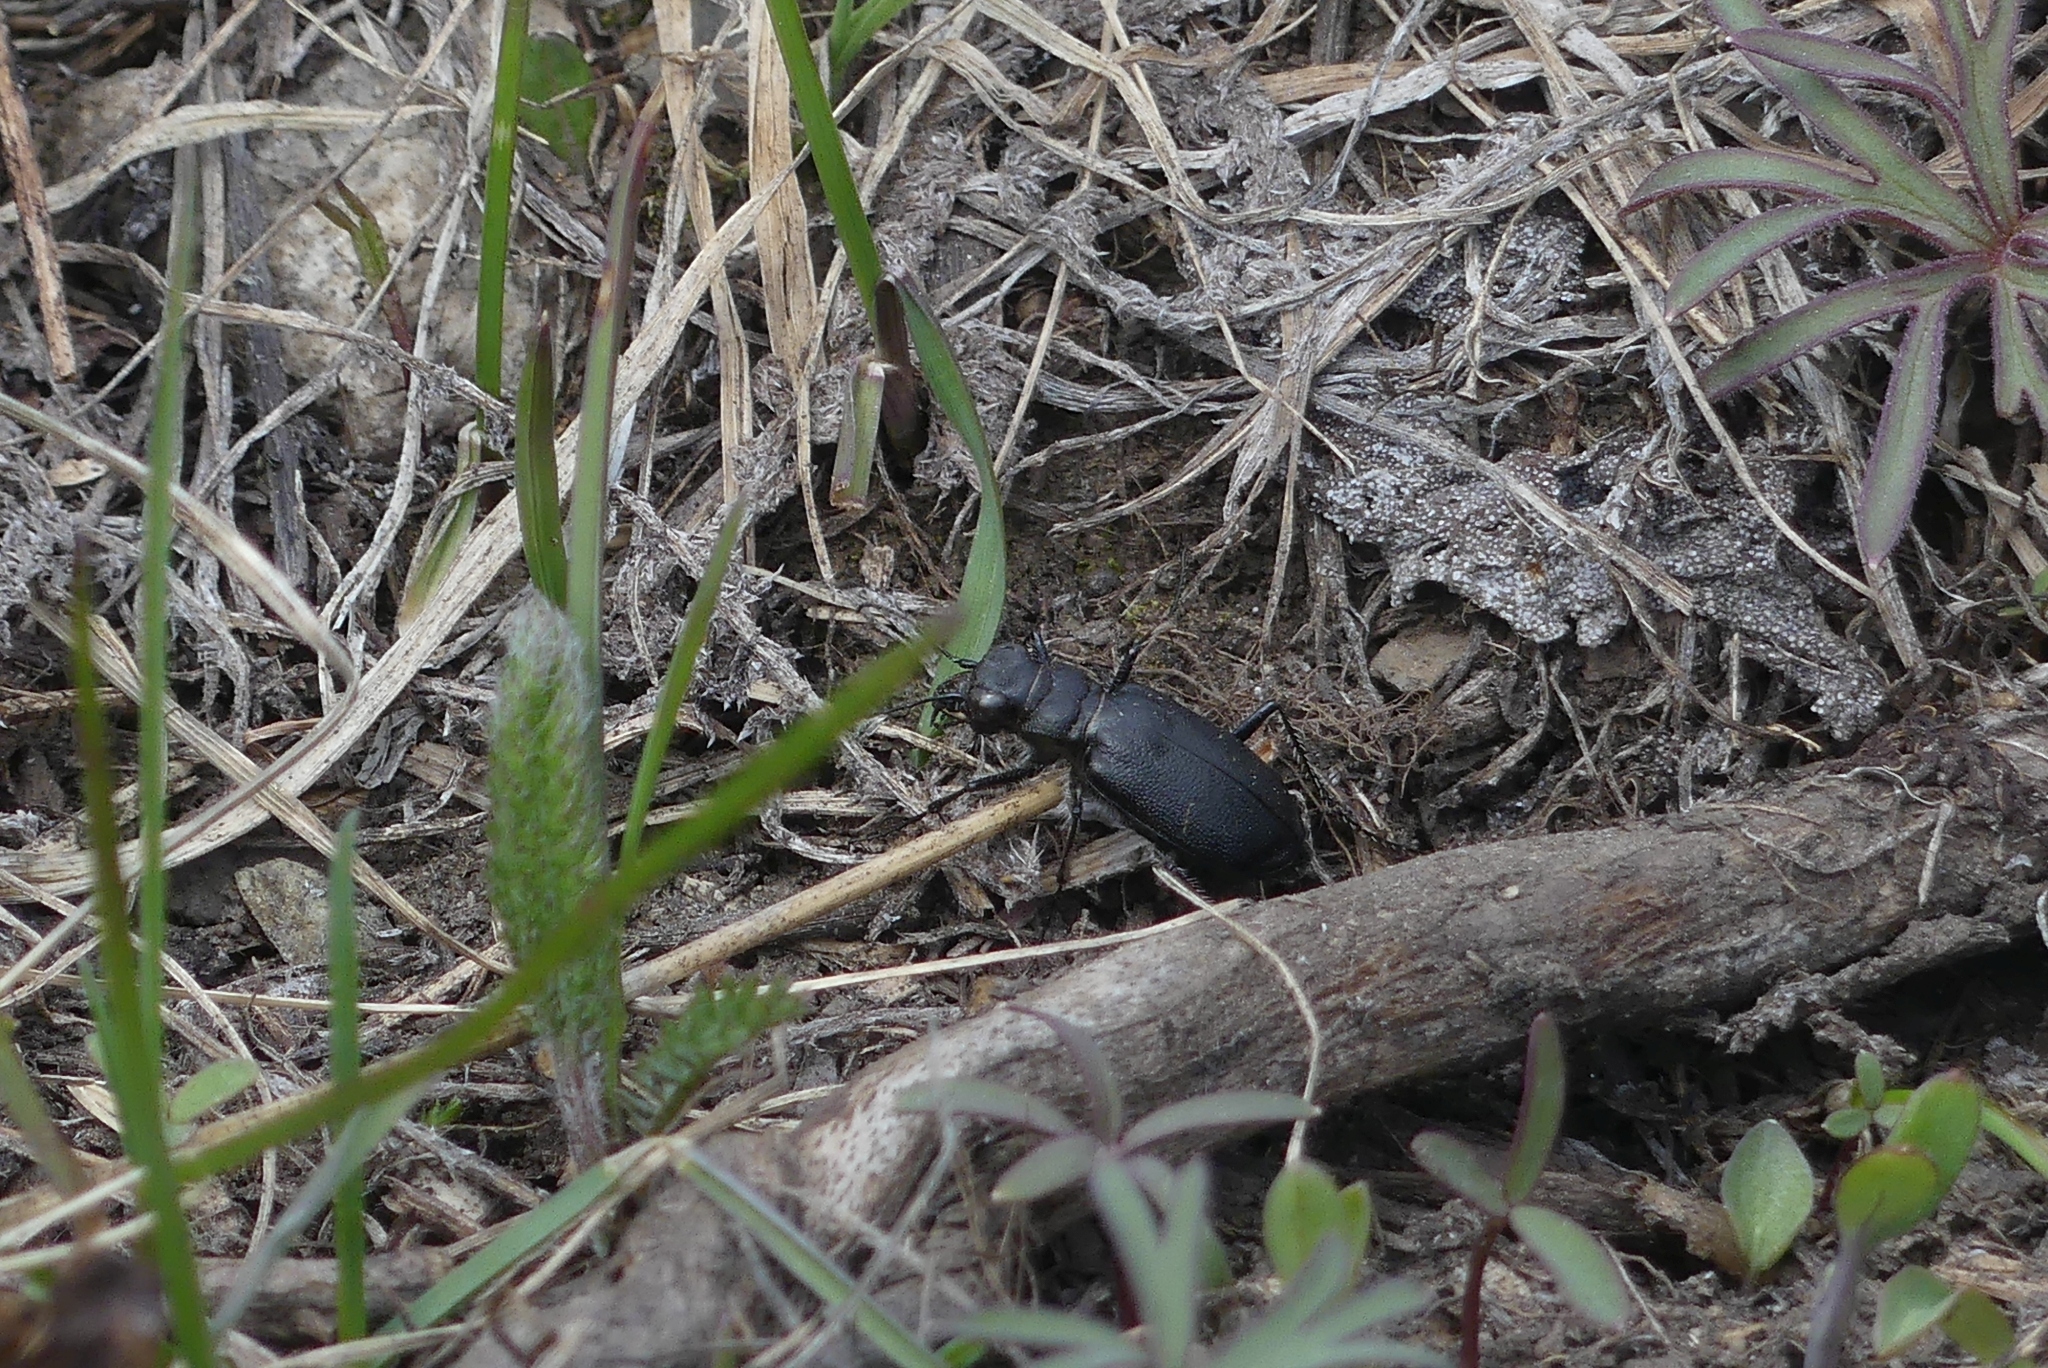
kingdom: Animalia
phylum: Arthropoda
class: Insecta
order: Coleoptera
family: Carabidae
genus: Cicindela
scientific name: Cicindela nebraskana
